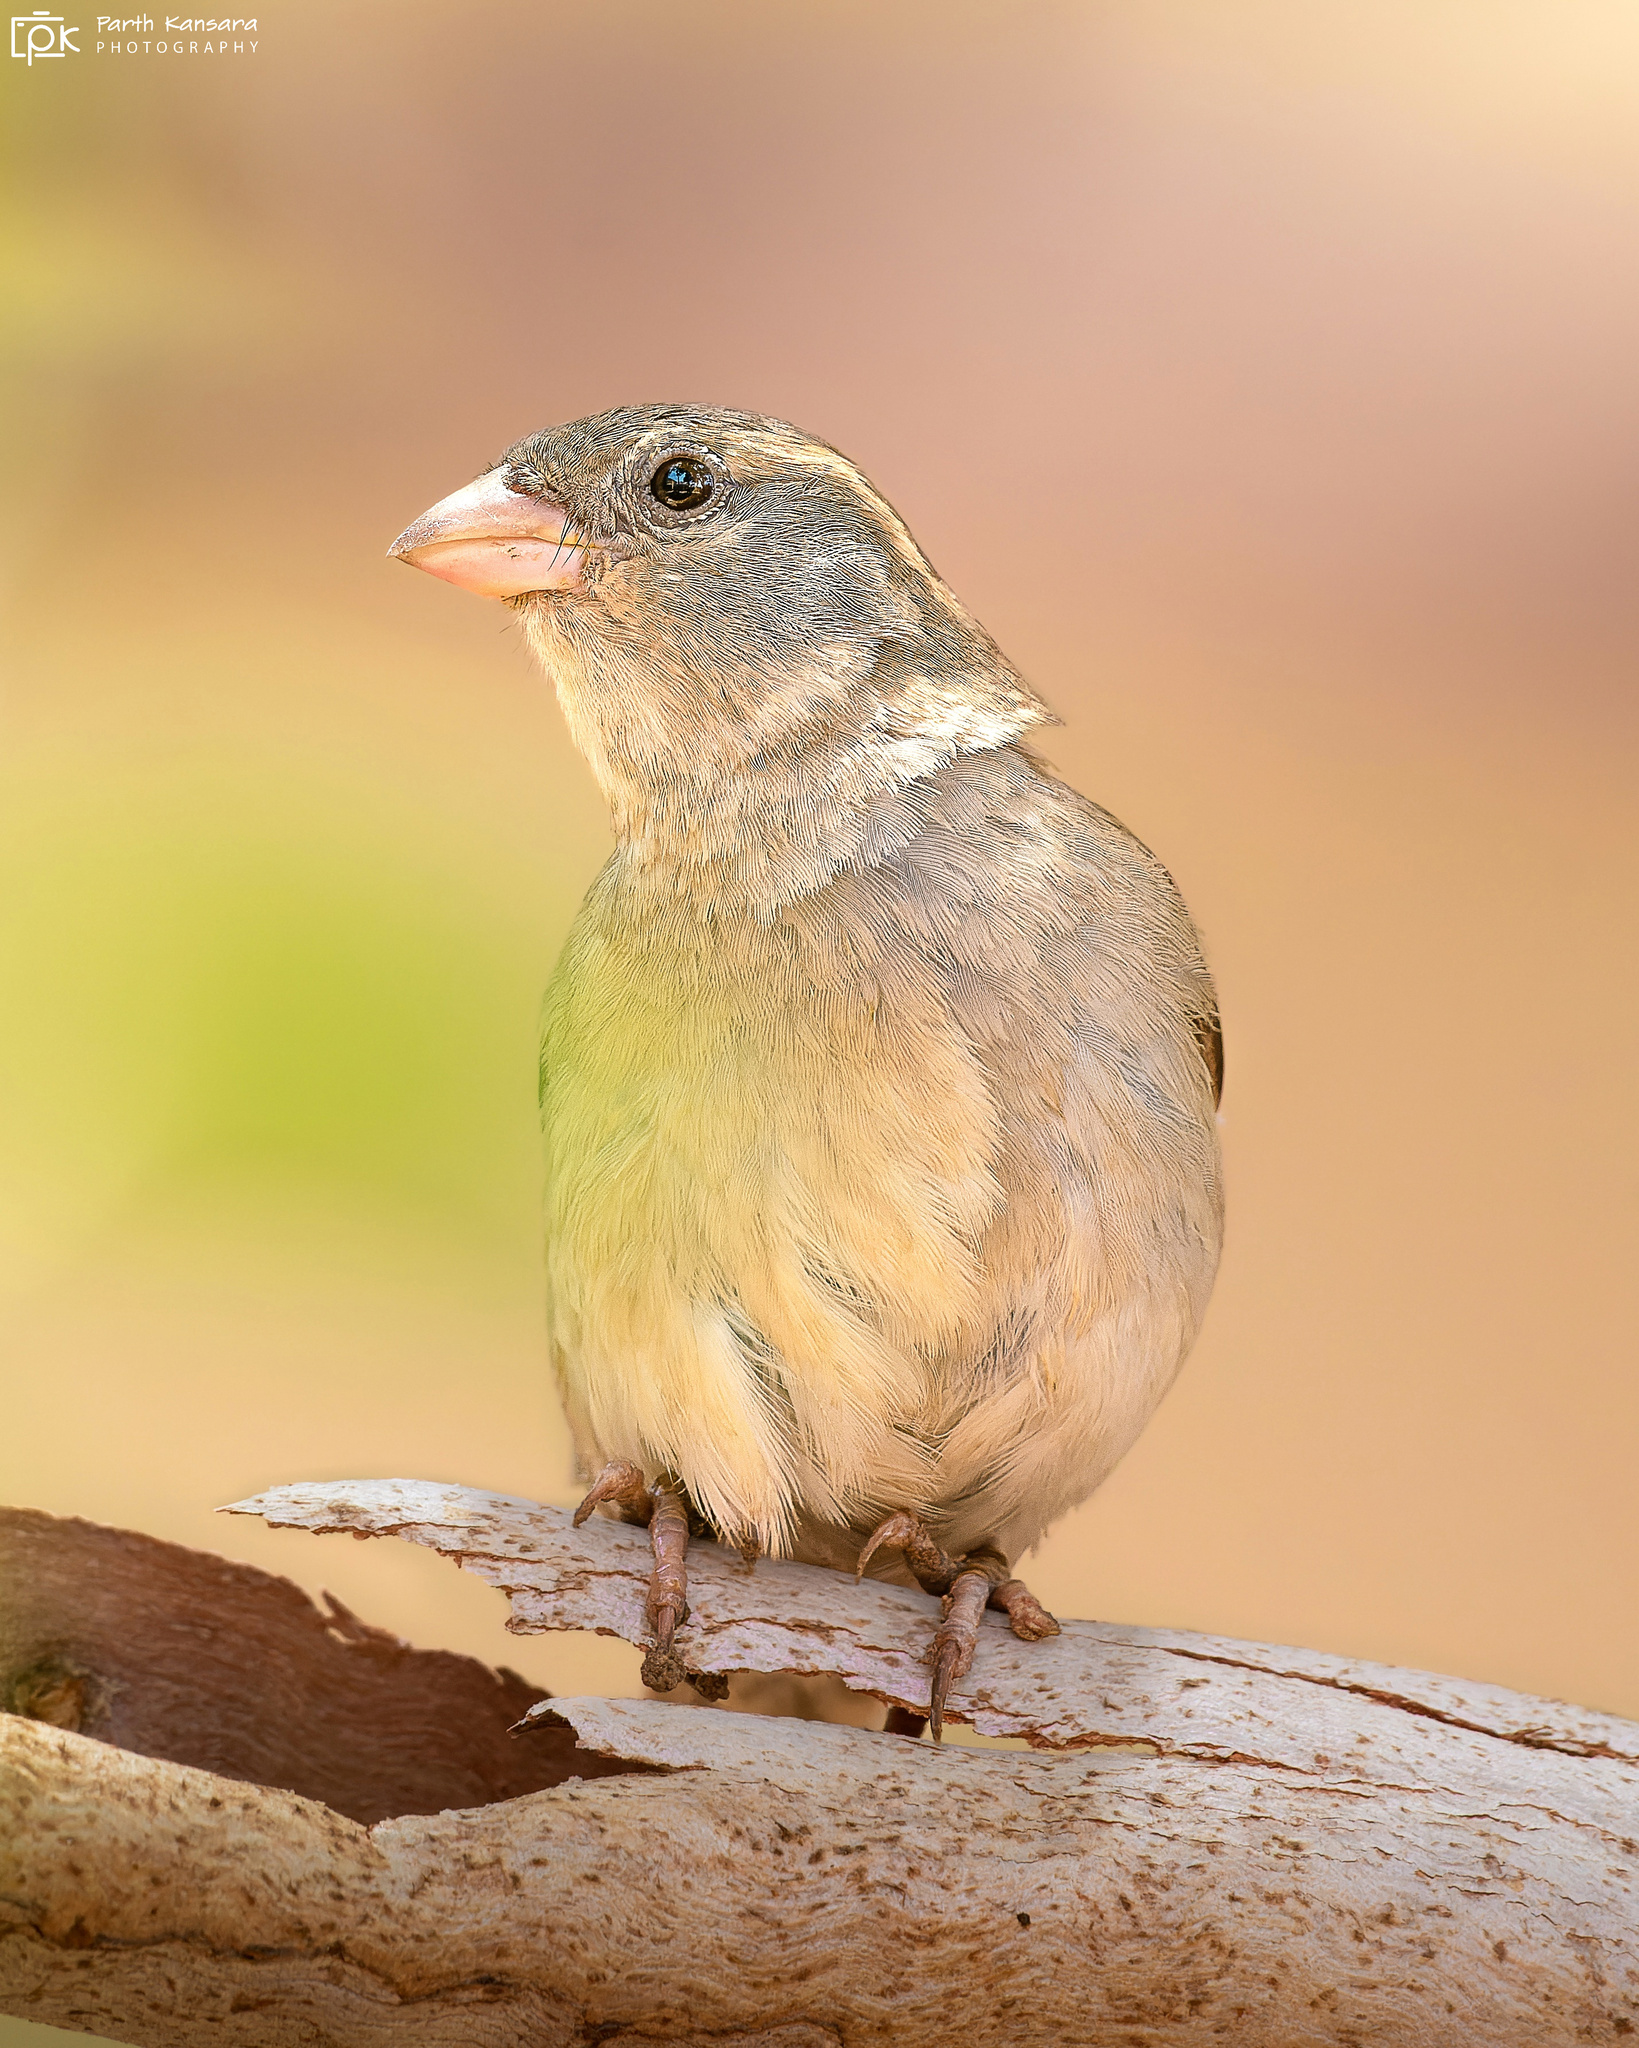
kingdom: Animalia
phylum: Chordata
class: Aves
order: Passeriformes
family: Passeridae
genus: Passer
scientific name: Passer domesticus
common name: House sparrow
